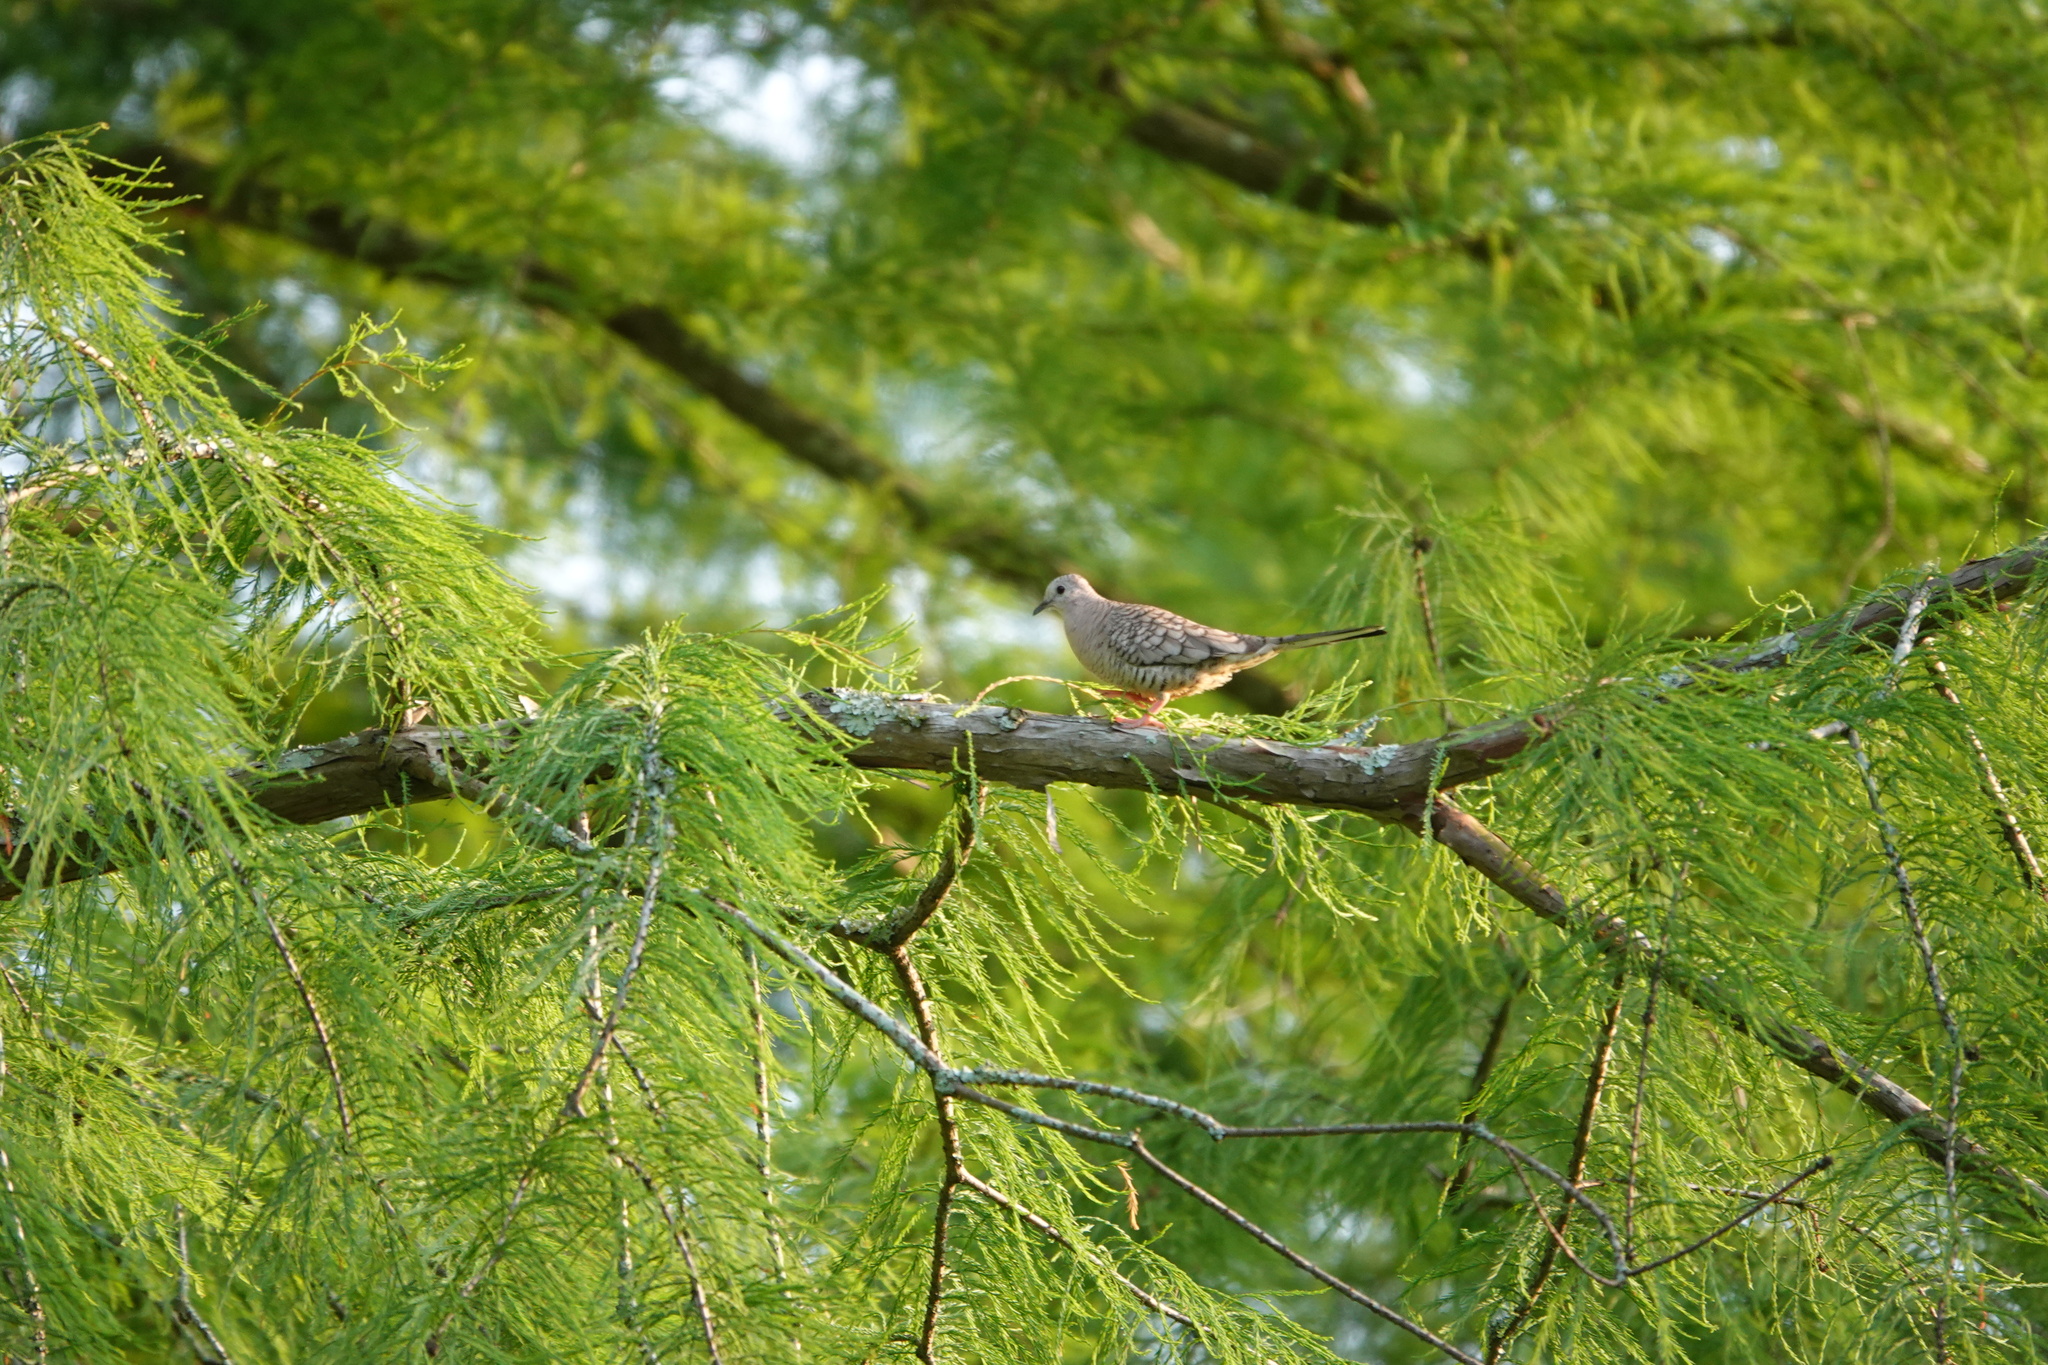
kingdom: Animalia
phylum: Chordata
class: Aves
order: Columbiformes
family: Columbidae
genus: Columbina
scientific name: Columbina inca
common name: Inca dove
